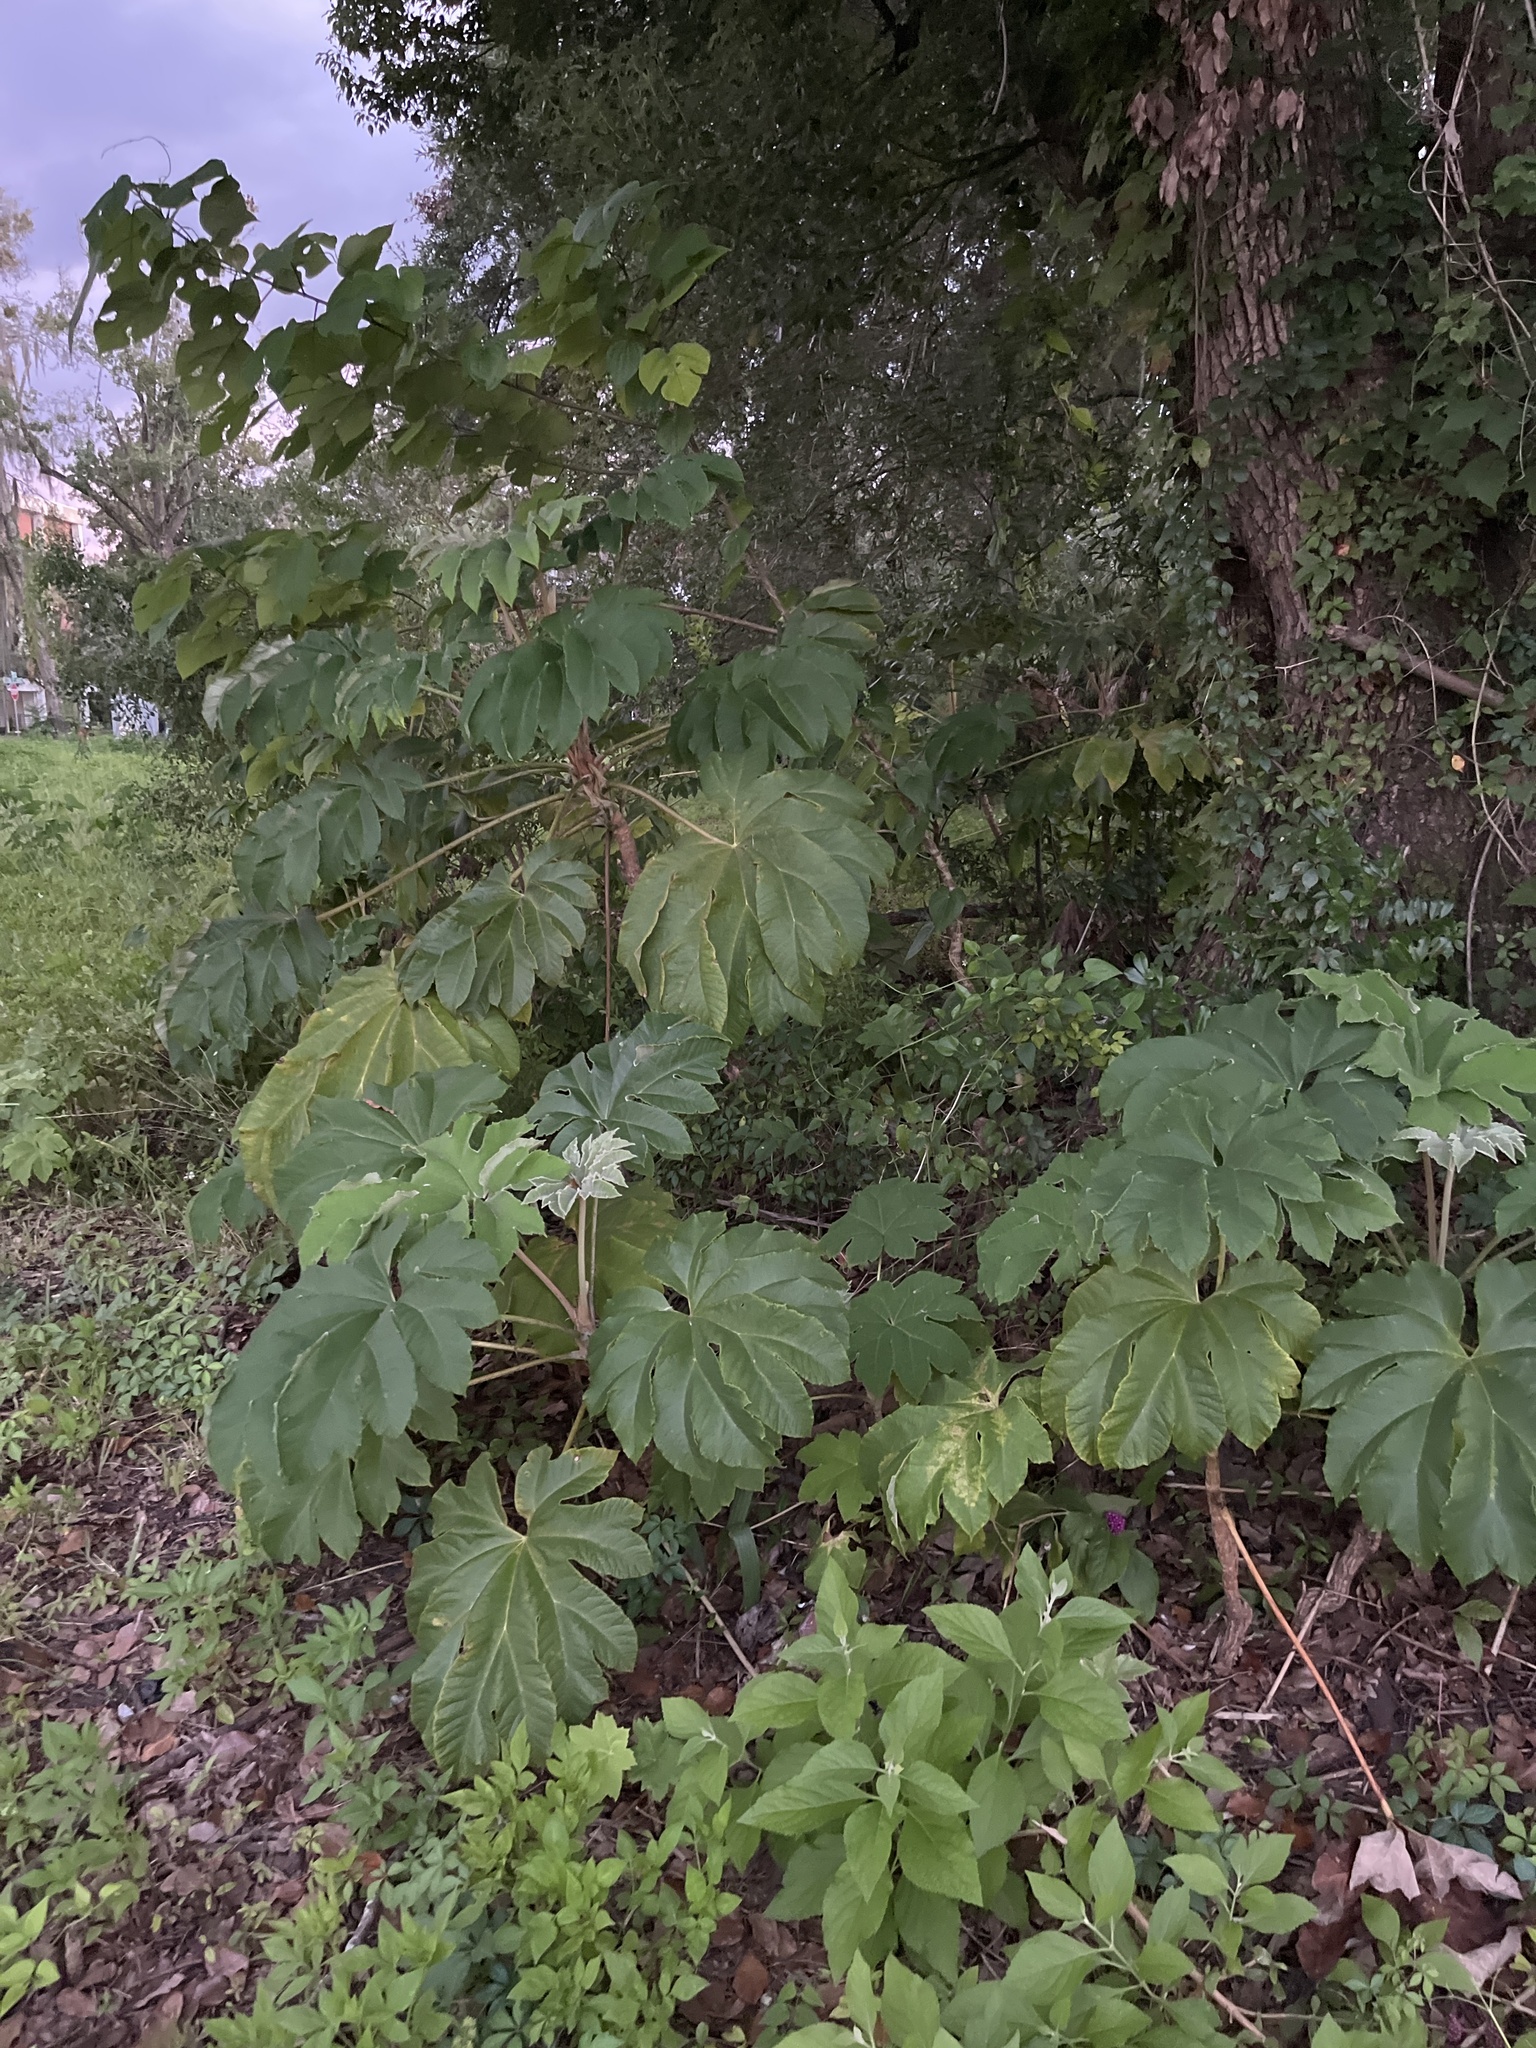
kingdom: Plantae
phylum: Tracheophyta
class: Magnoliopsida
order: Apiales
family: Araliaceae
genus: Tetrapanax
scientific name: Tetrapanax papyrifer
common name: Rice-paper plant
